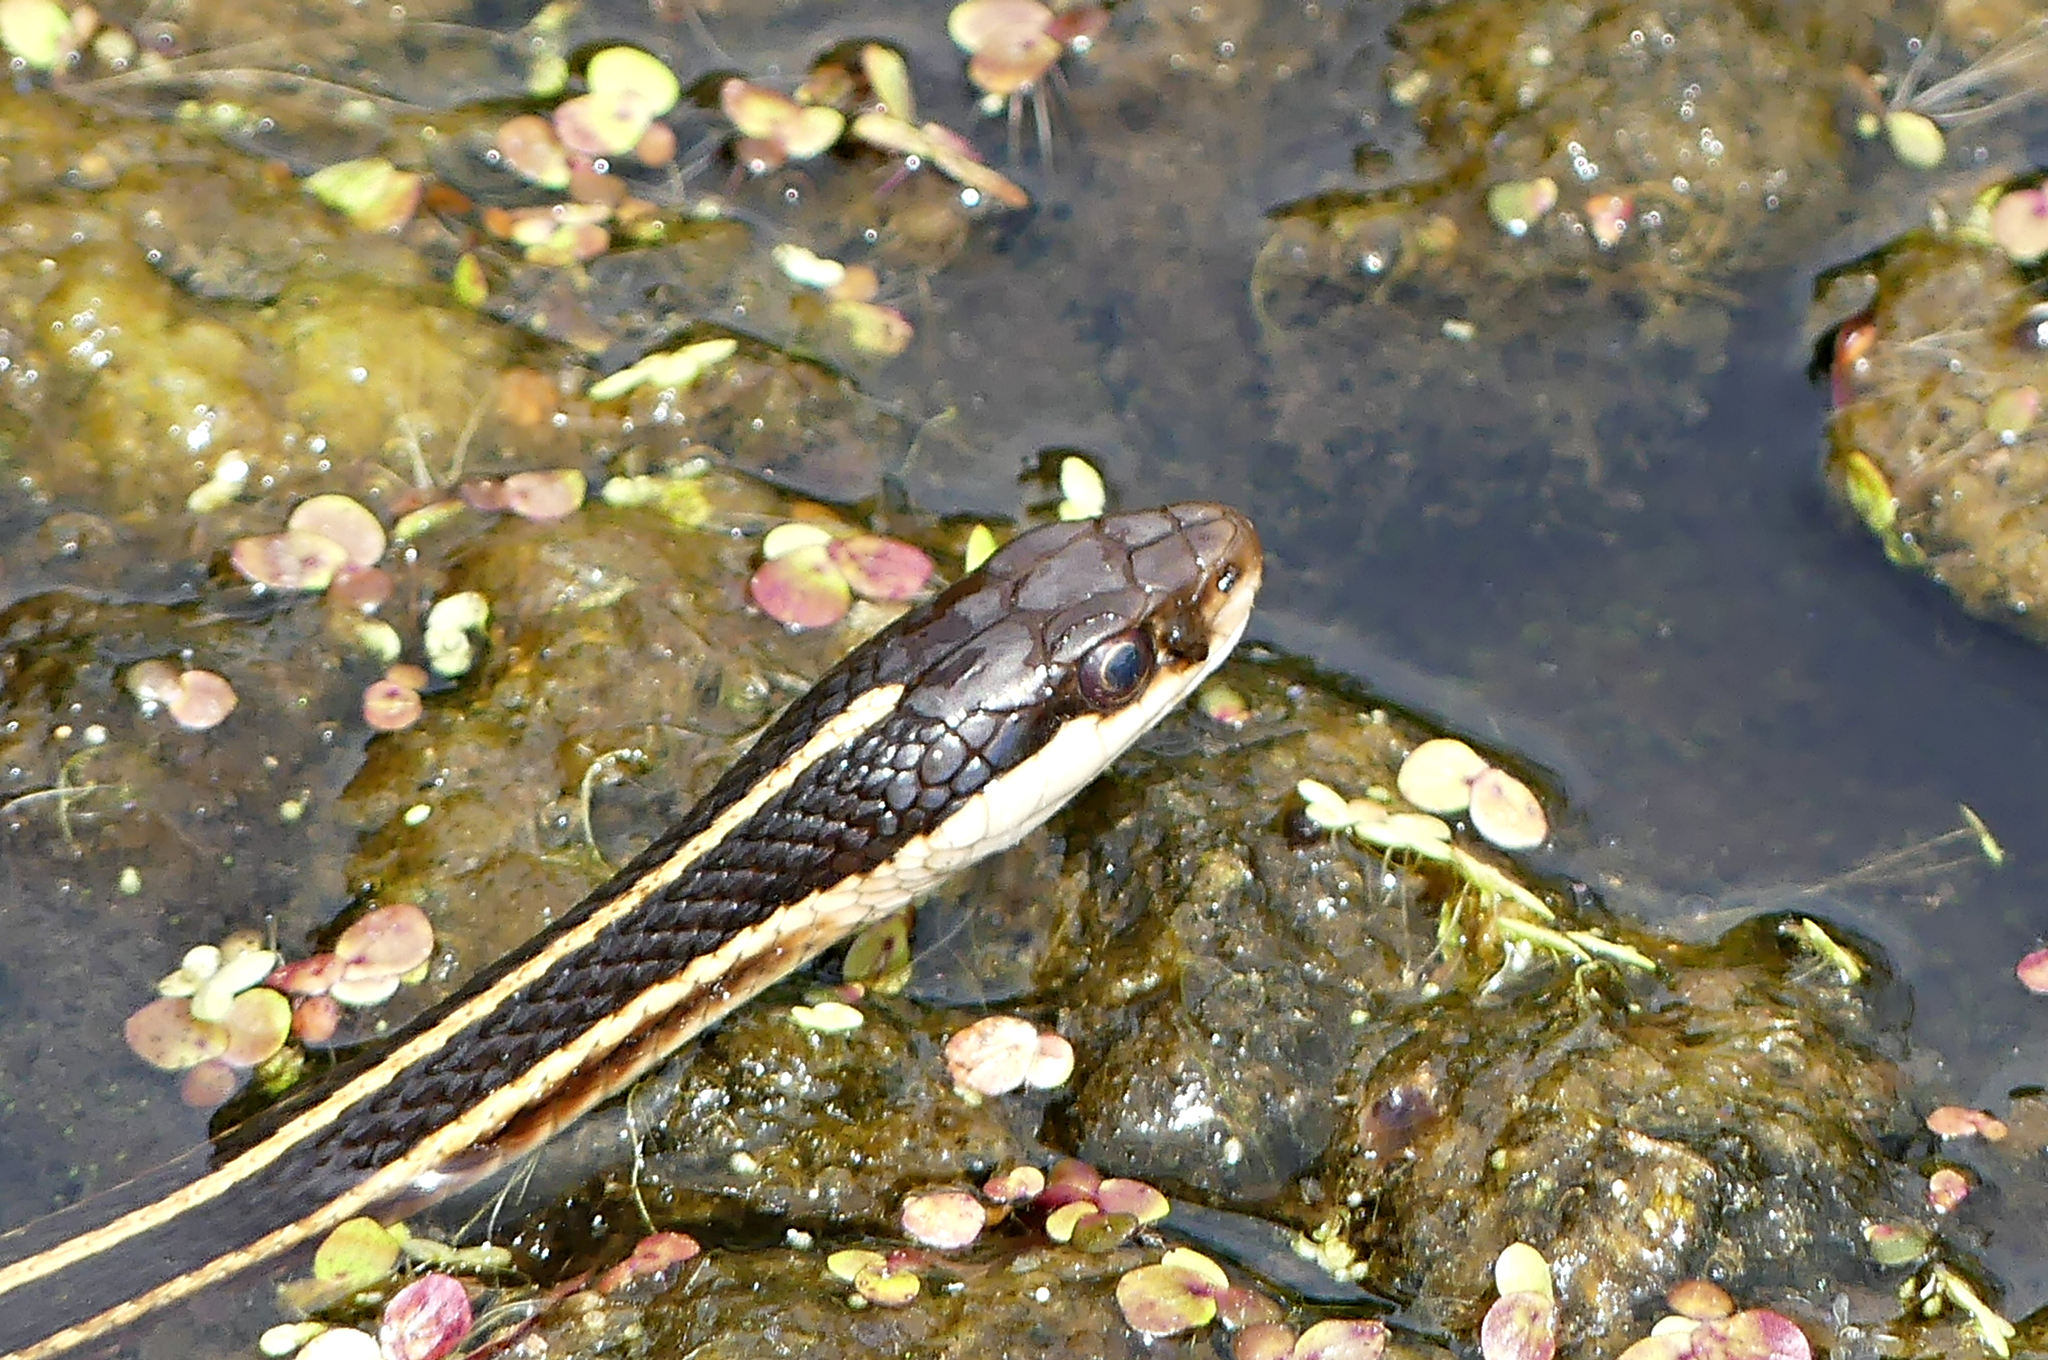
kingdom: Animalia
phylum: Chordata
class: Squamata
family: Colubridae
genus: Thamnophis
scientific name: Thamnophis saurita
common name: Eastern ribbonsnake
